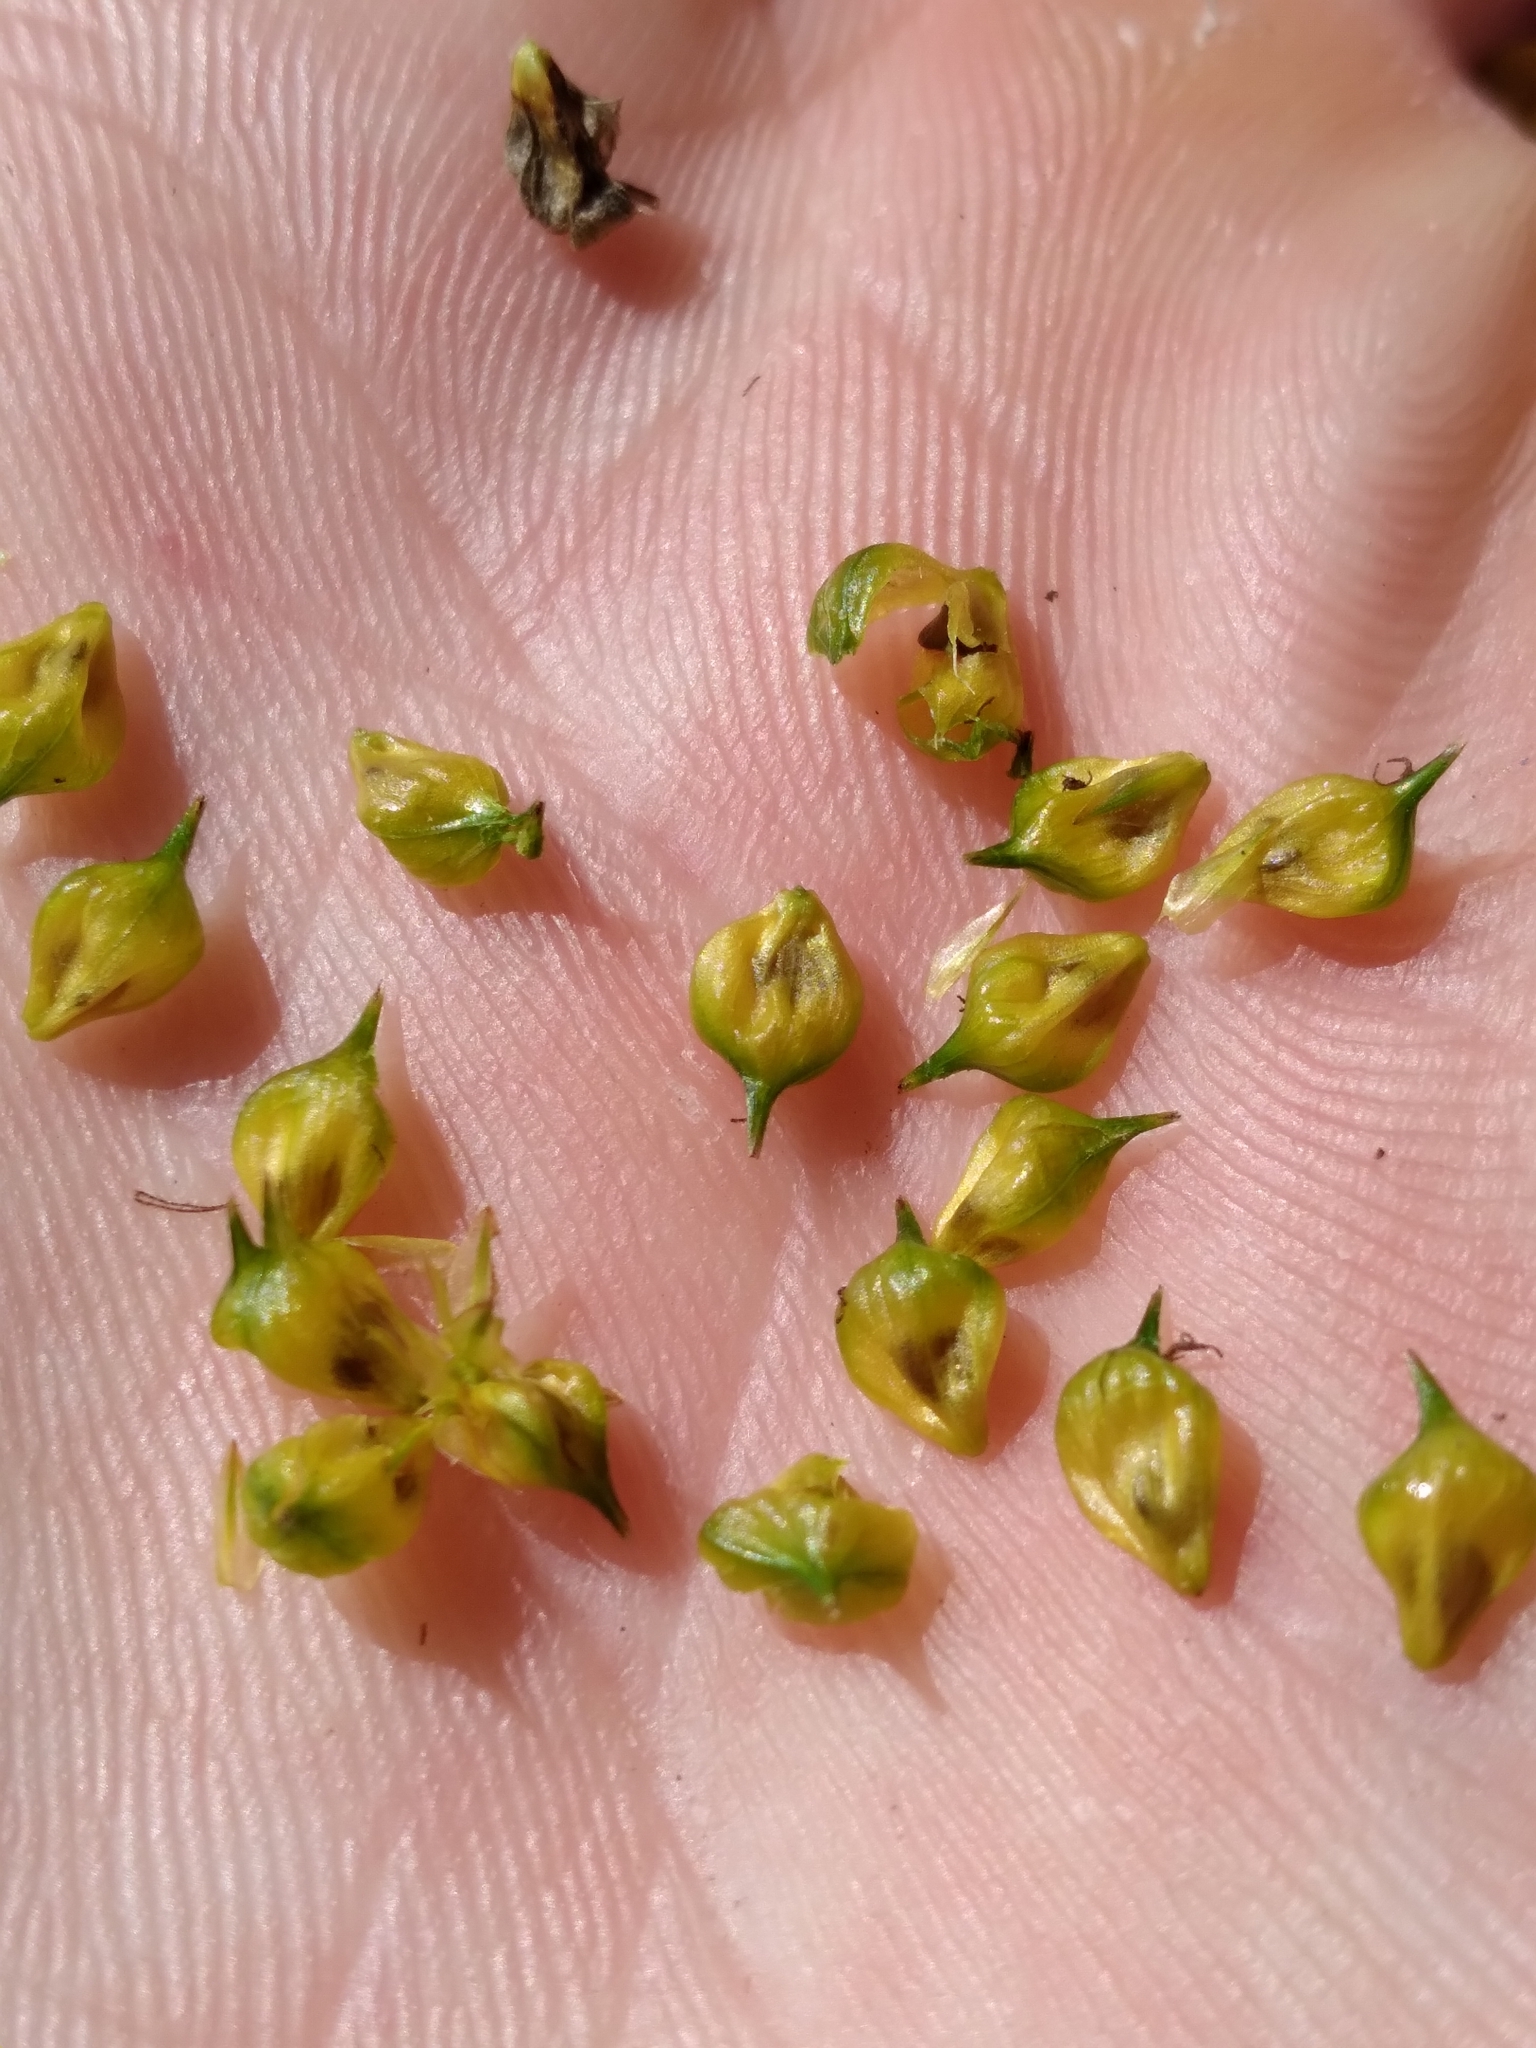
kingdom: Plantae
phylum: Tracheophyta
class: Liliopsida
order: Poales
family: Cyperaceae
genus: Carex
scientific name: Carex lutea
